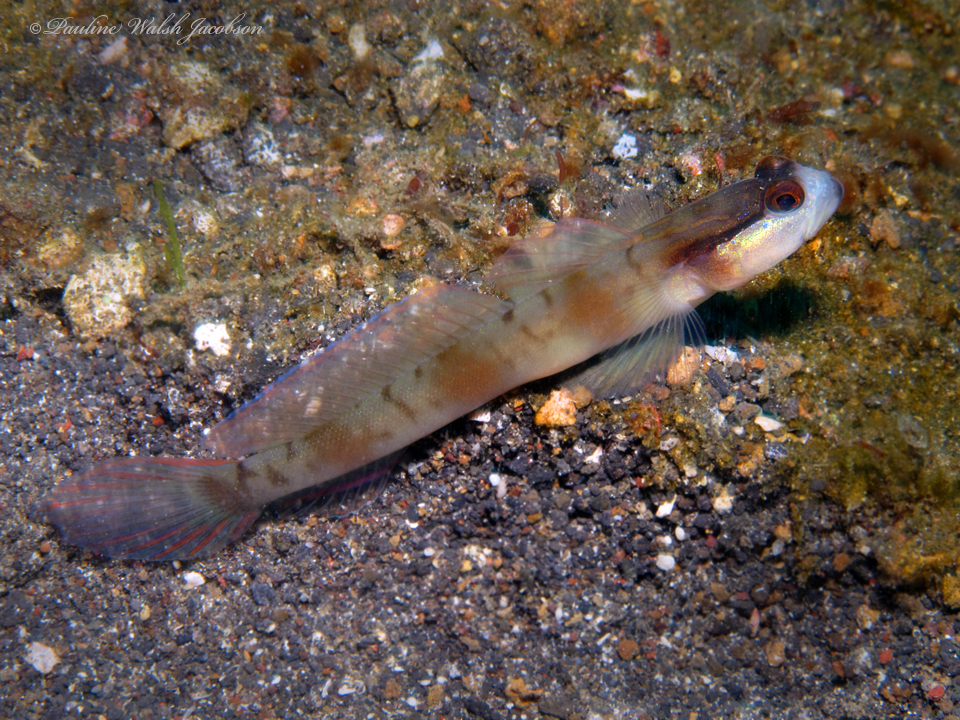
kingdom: Animalia
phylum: Chordata
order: Perciformes
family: Gobiidae
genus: Amblyeleotris
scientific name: Amblyeleotris gymnocephala
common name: Masked shrimpgoby
